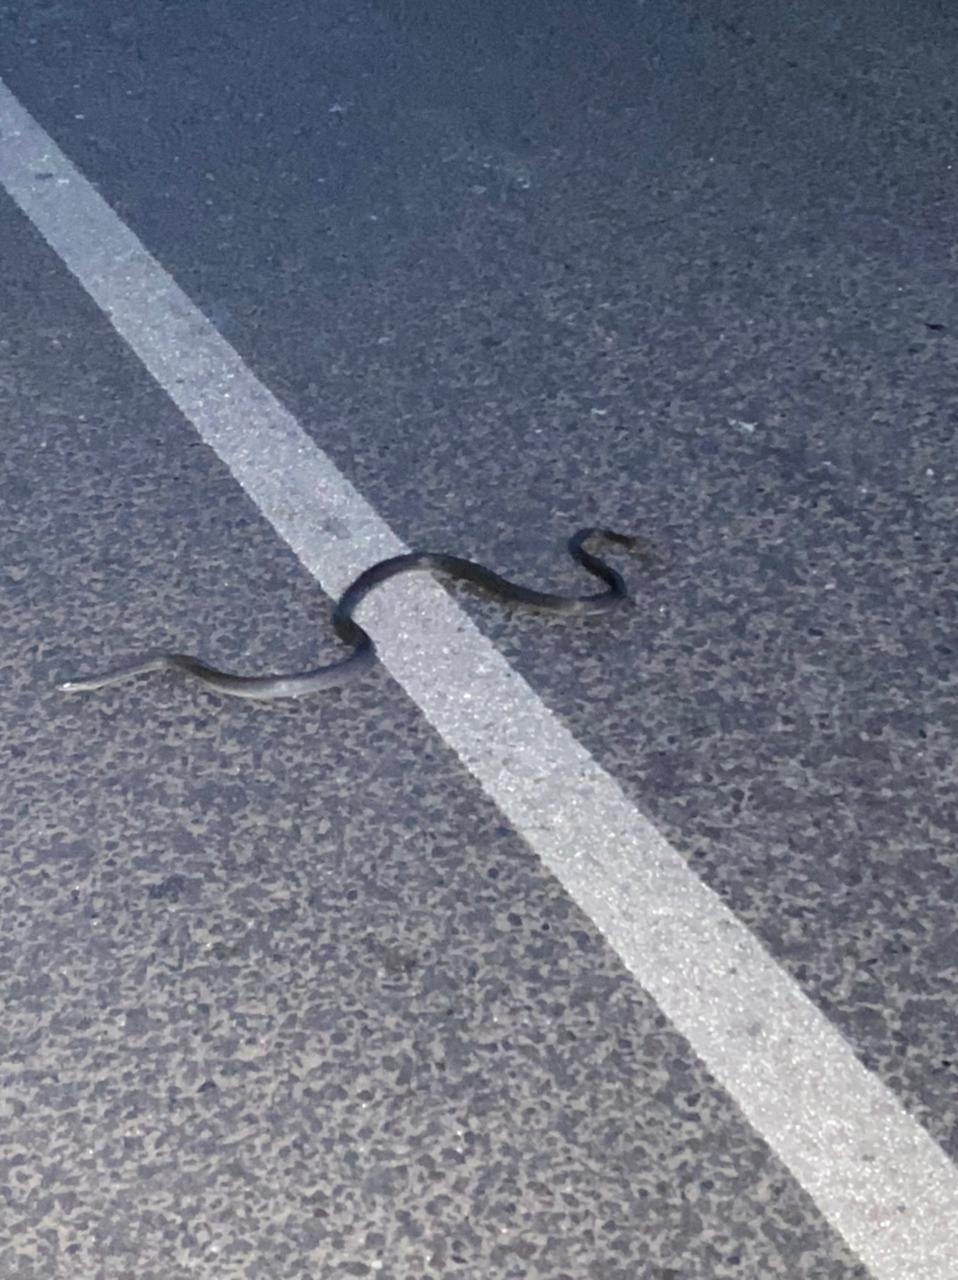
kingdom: Animalia
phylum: Chordata
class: Squamata
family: Colubridae
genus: Zamenis
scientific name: Zamenis longissimus
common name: Aesculapean snake
